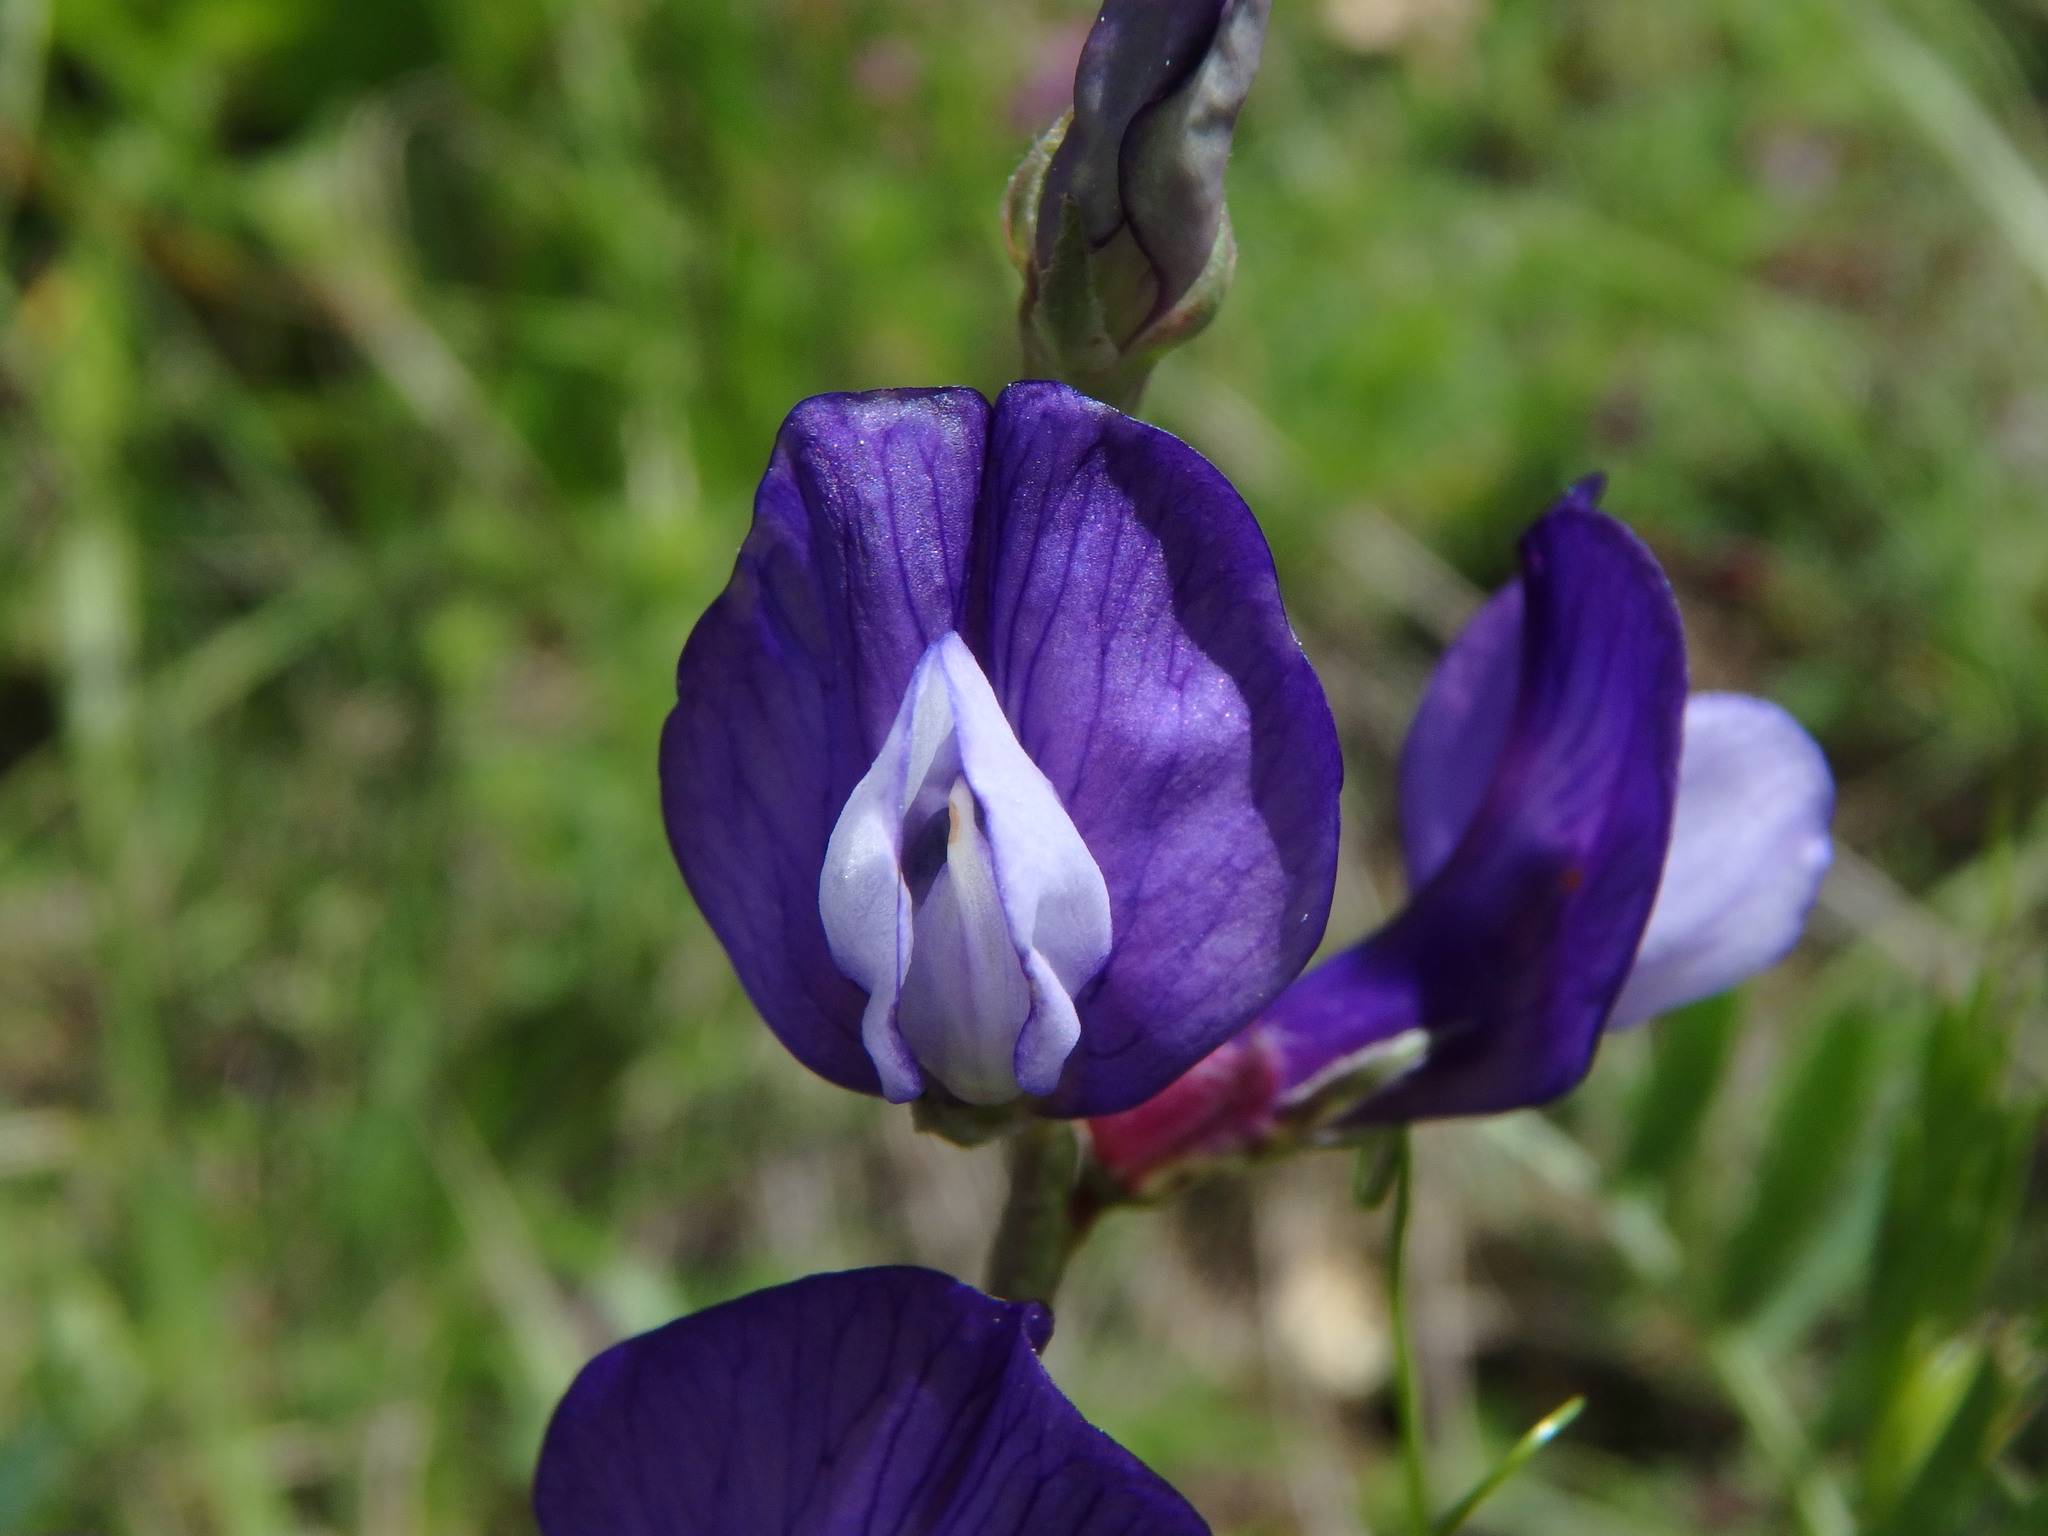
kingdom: Plantae
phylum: Tracheophyta
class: Magnoliopsida
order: Fabales
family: Fabaceae
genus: Vicia
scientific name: Vicia onobrychioides
